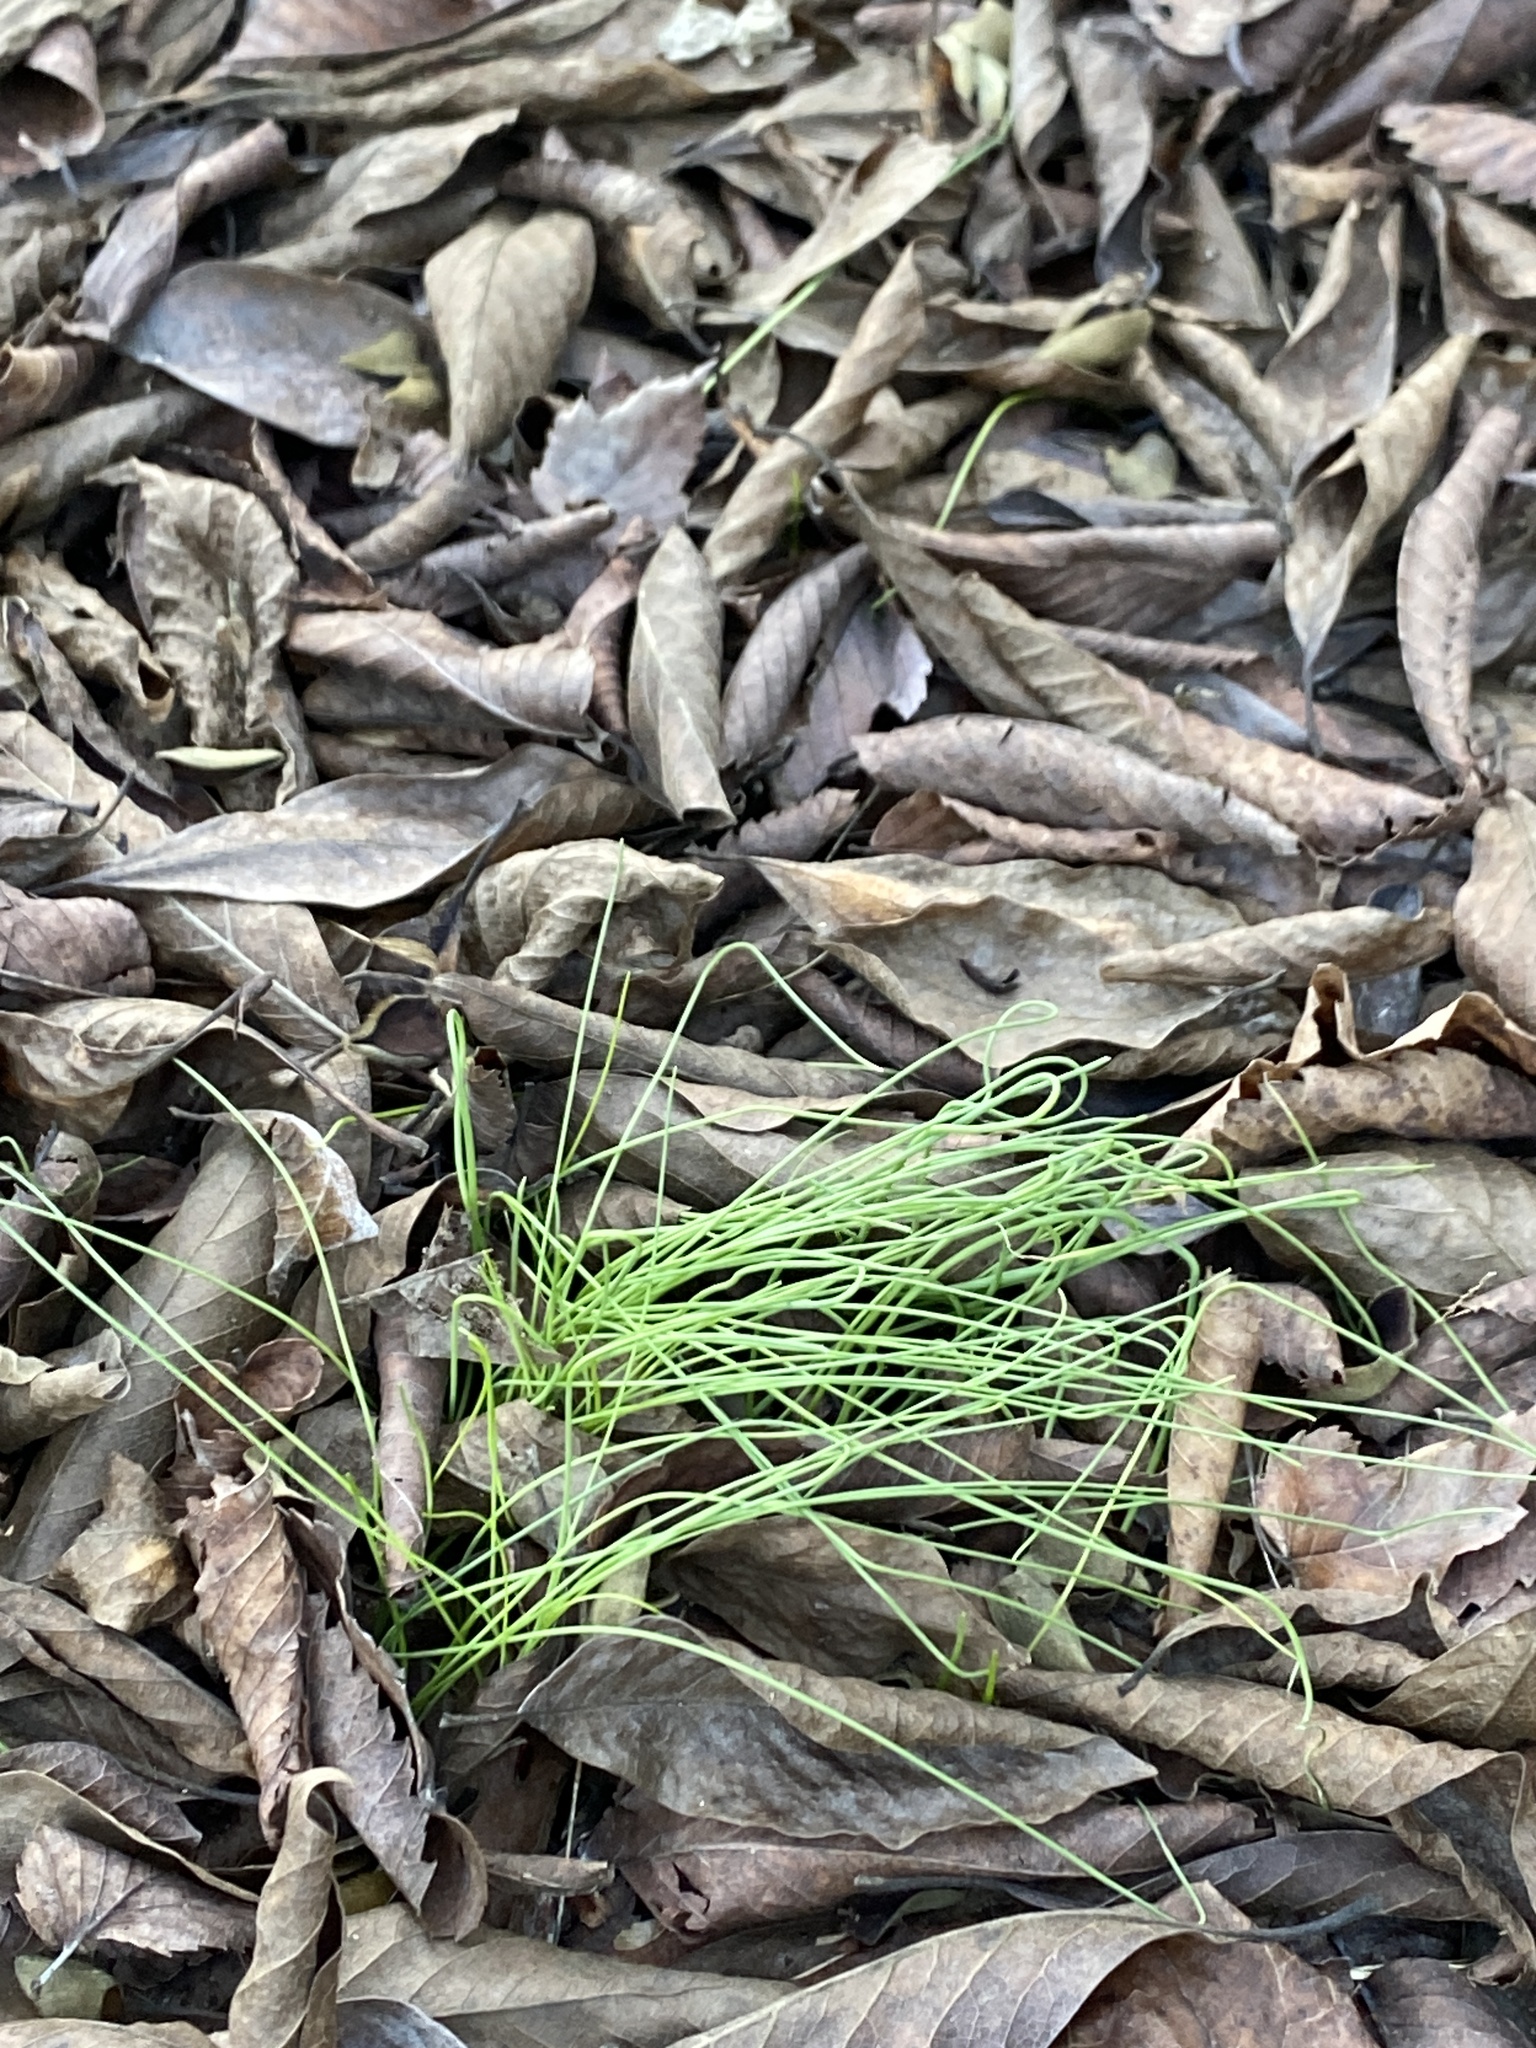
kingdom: Plantae
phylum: Tracheophyta
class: Liliopsida
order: Asparagales
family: Amaryllidaceae
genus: Allium
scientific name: Allium vineale
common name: Crow garlic
